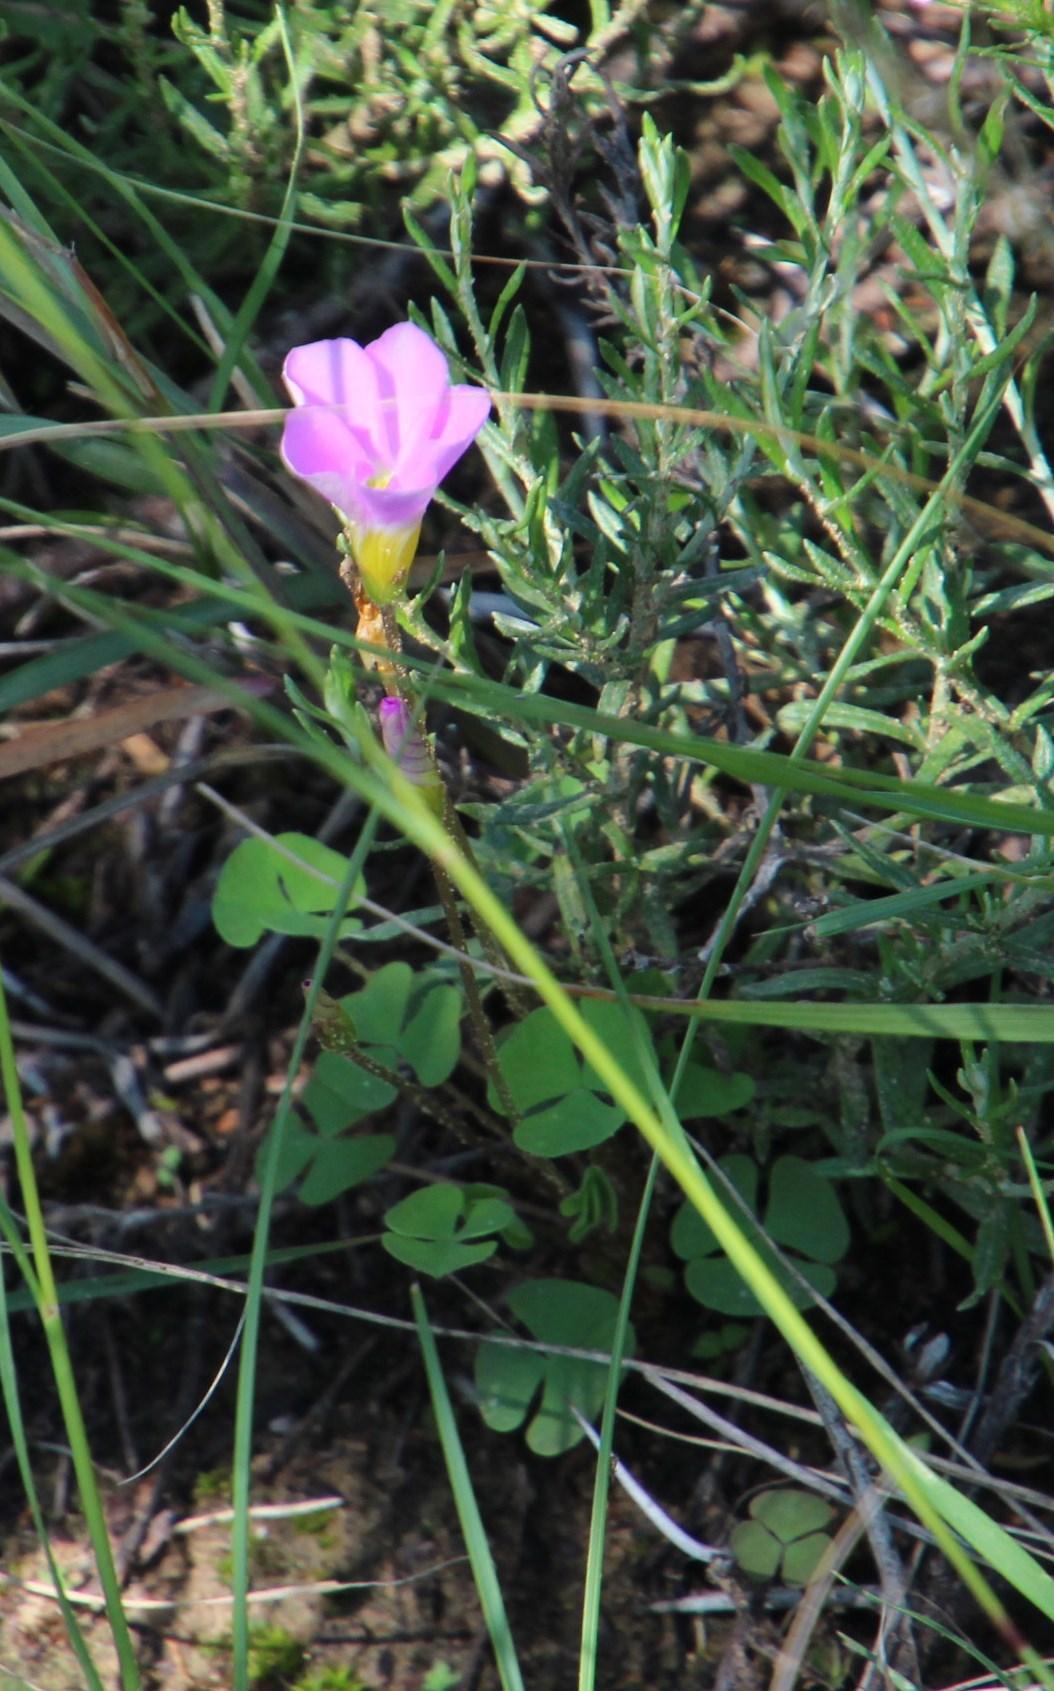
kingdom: Plantae
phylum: Tracheophyta
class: Magnoliopsida
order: Oxalidales
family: Oxalidaceae
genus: Oxalis
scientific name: Oxalis obliquifolia
